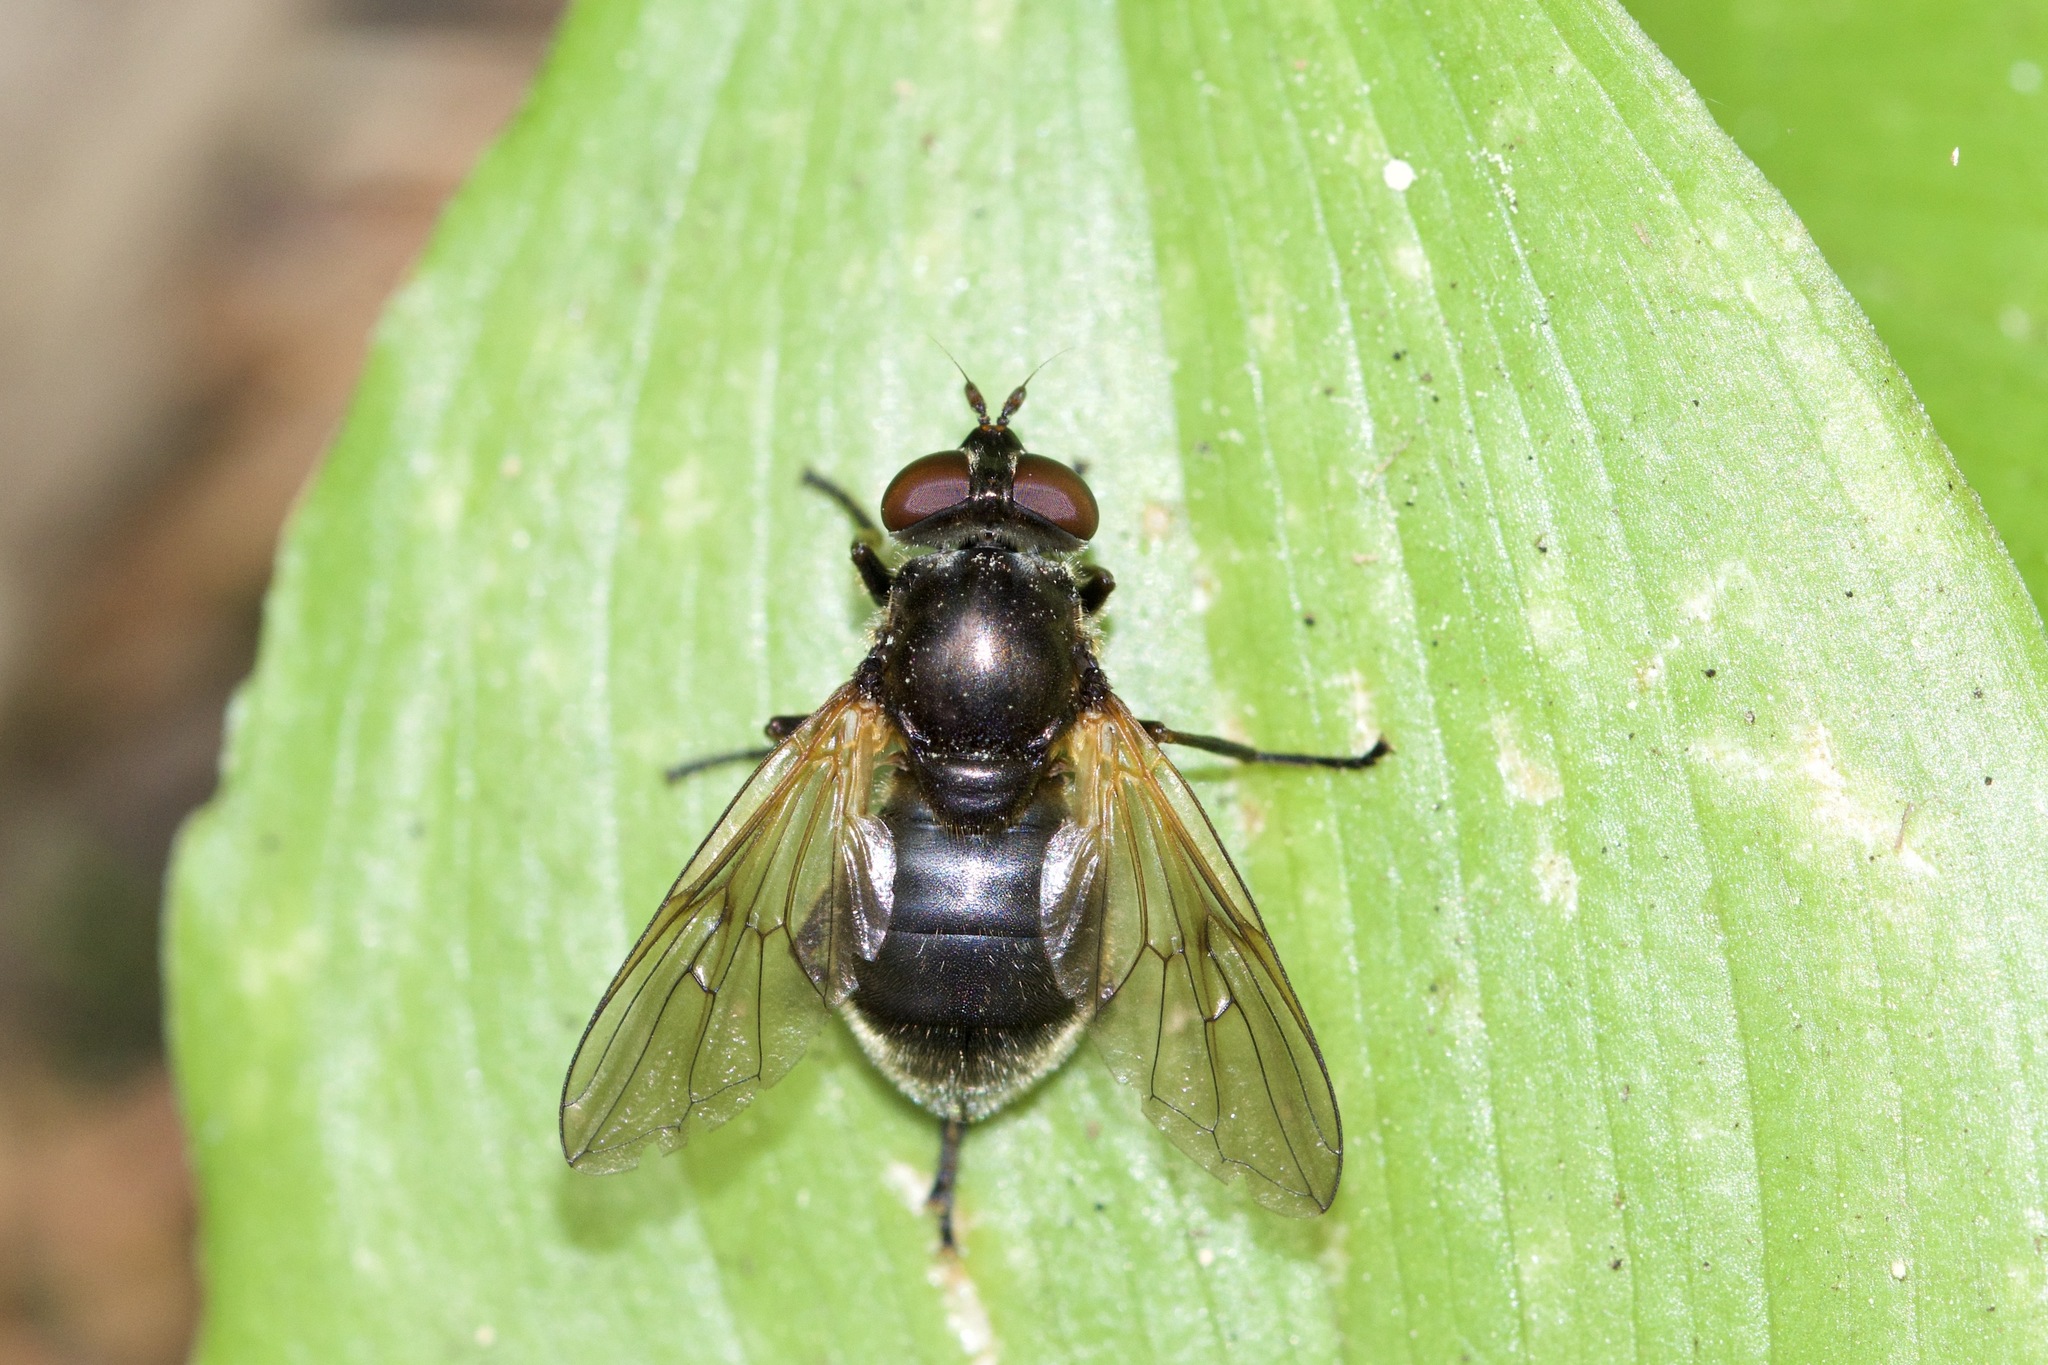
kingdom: Animalia
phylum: Arthropoda
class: Insecta
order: Diptera
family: Syrphidae
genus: Blera
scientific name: Blera nigra
